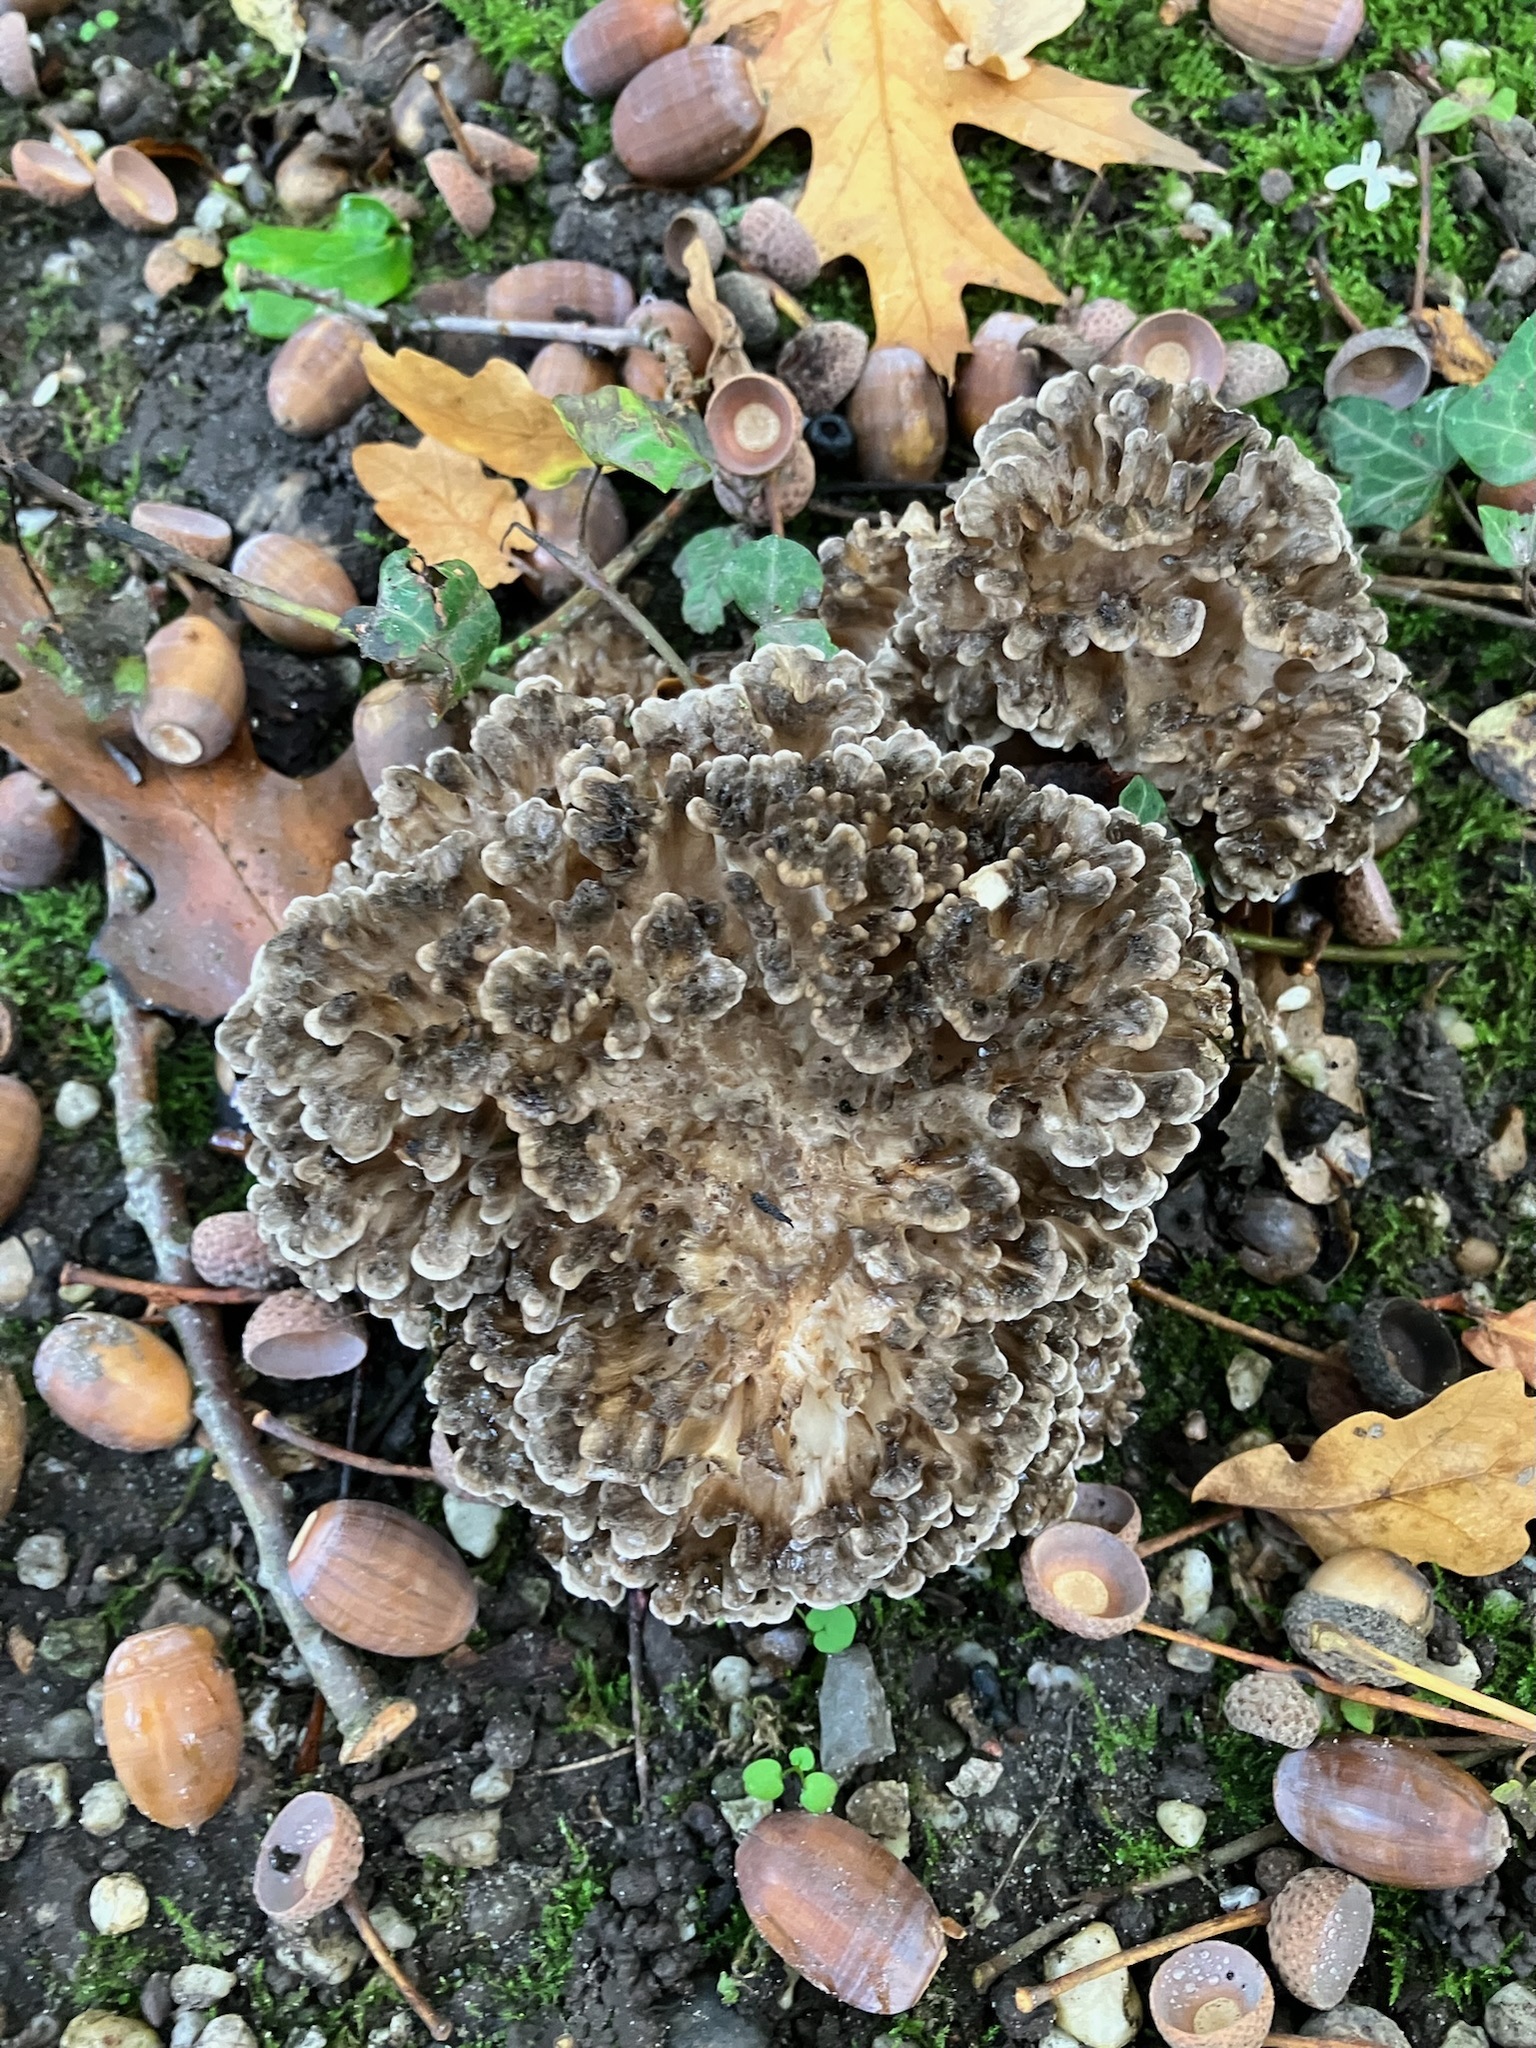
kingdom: Fungi
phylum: Basidiomycota
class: Agaricomycetes
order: Polyporales
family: Grifolaceae
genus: Grifola
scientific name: Grifola frondosa
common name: Hen of the woods
